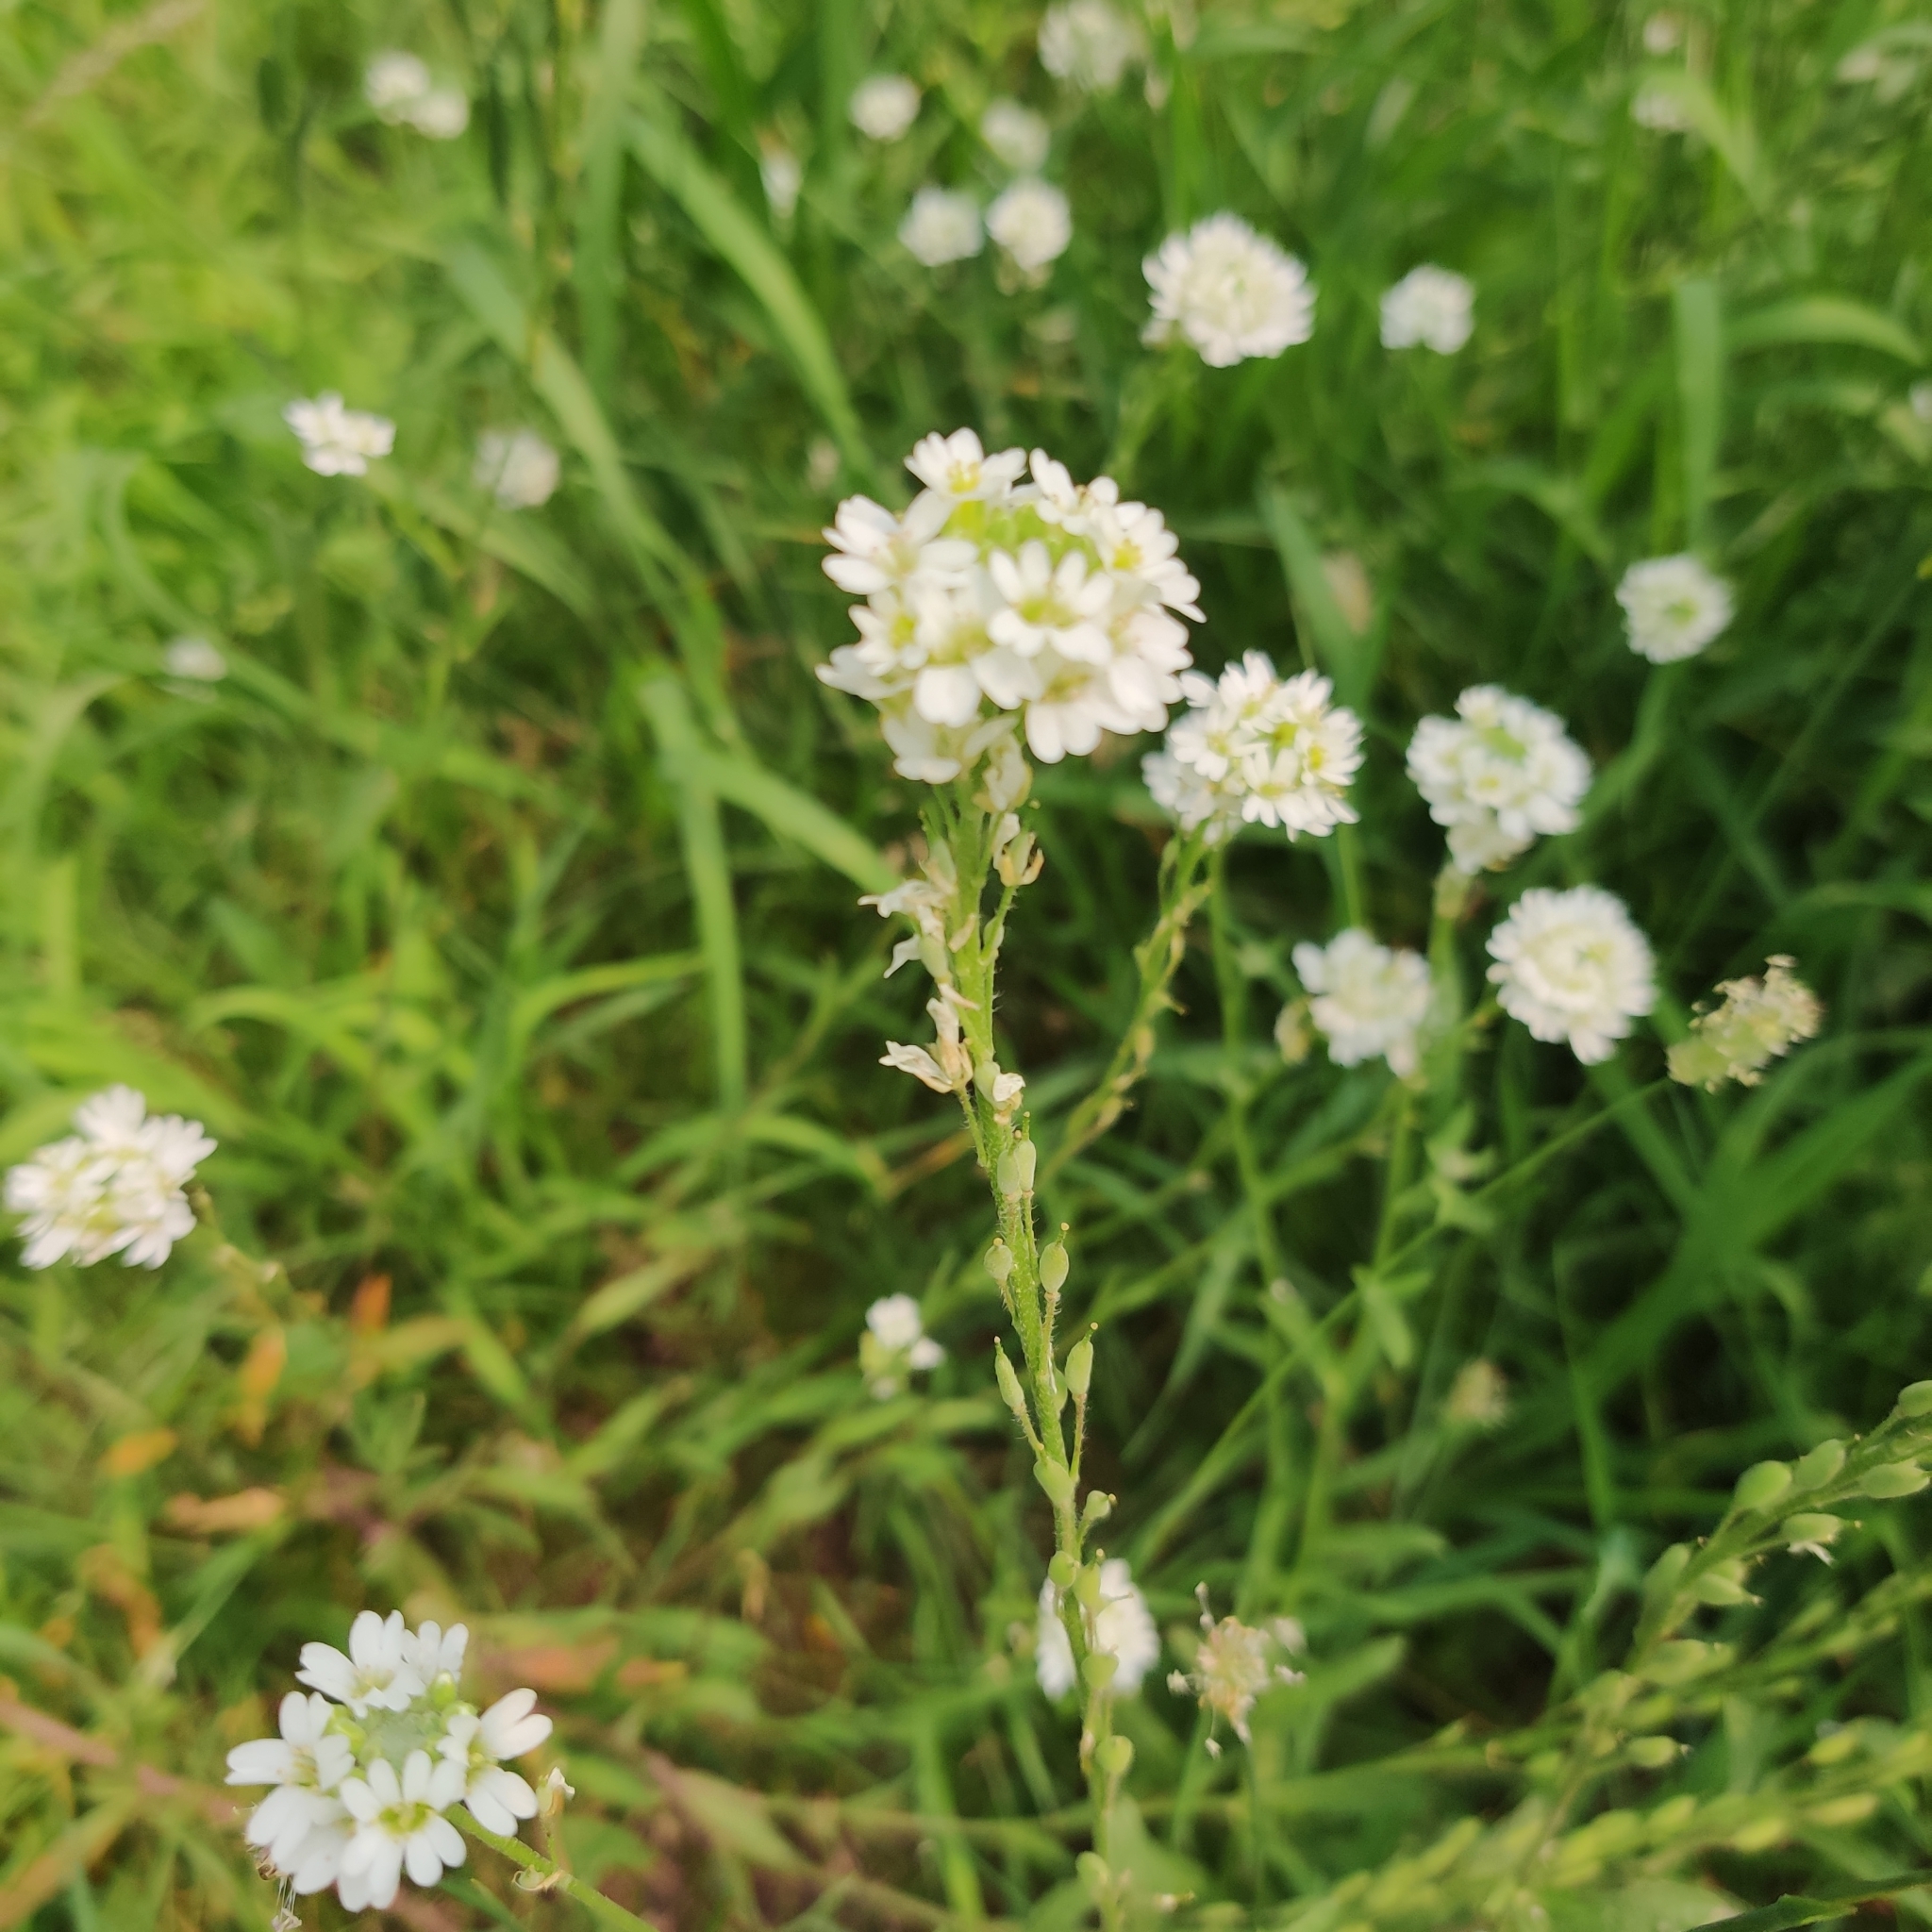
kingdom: Plantae
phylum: Tracheophyta
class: Magnoliopsida
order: Brassicales
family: Brassicaceae
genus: Berteroa
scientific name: Berteroa incana
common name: Hoary alison
